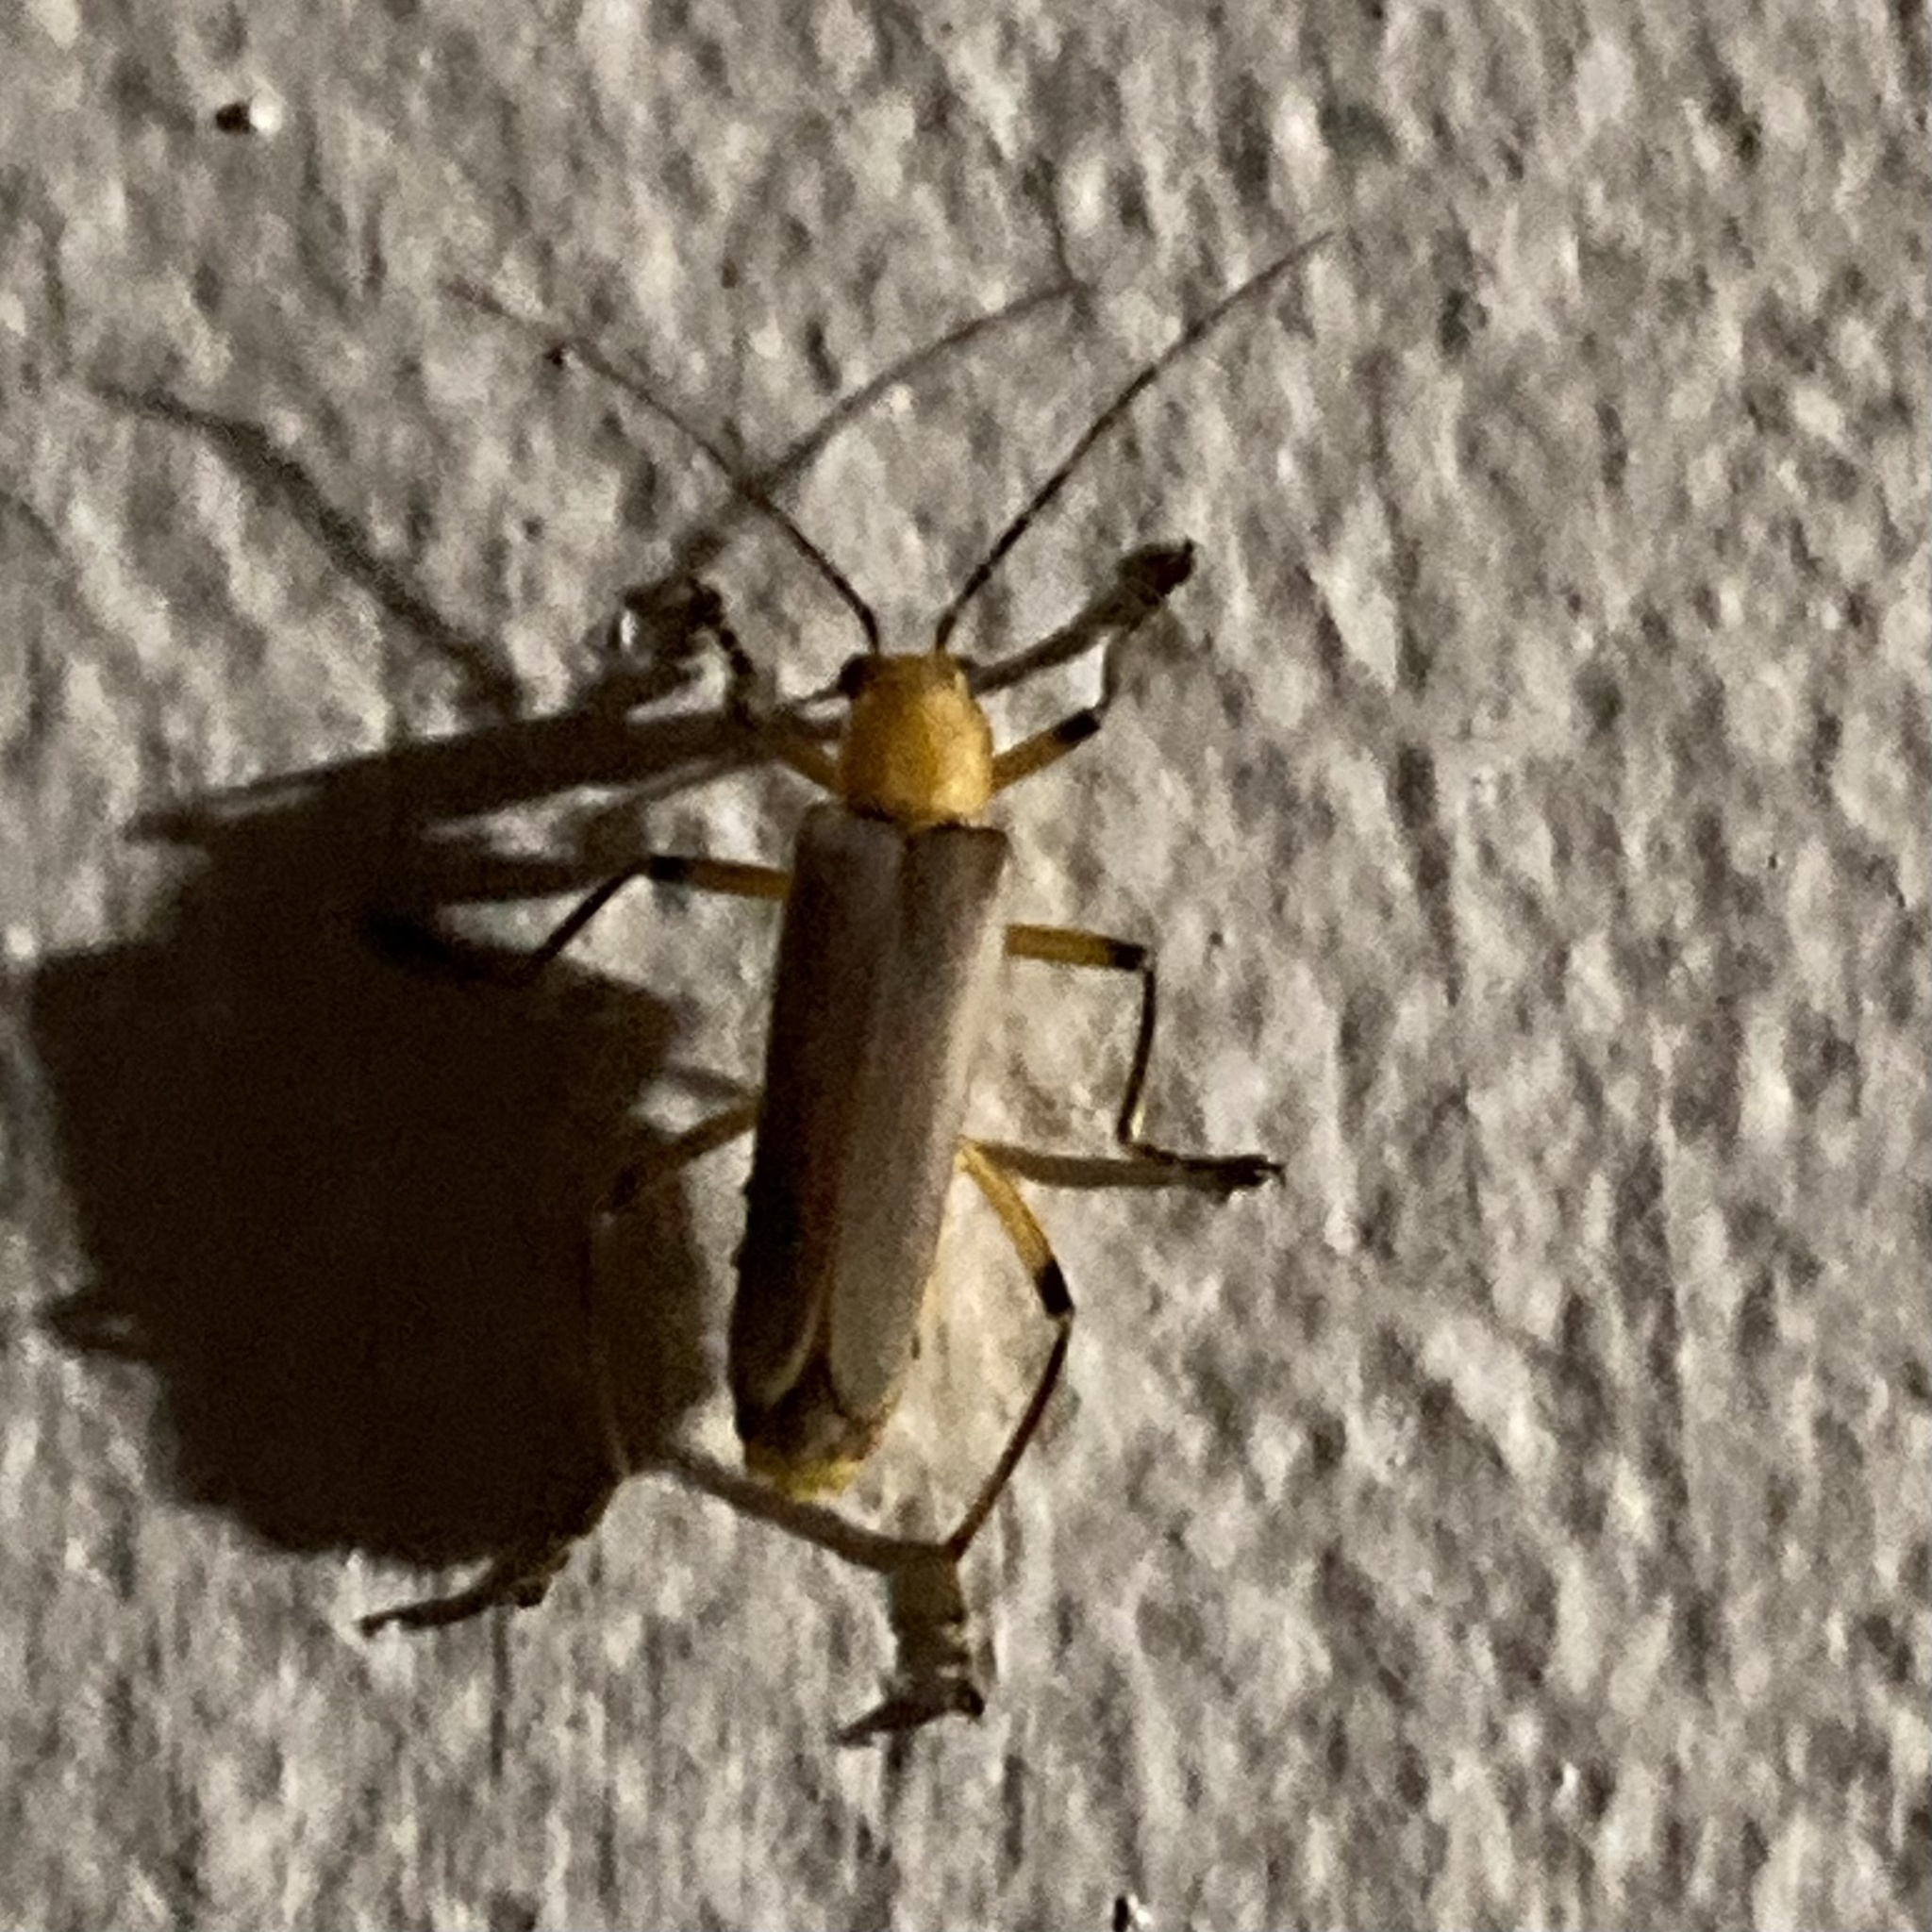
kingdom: Animalia
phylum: Arthropoda
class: Insecta
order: Coleoptera
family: Cantharidae
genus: Chauliognathus
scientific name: Chauliognathus
